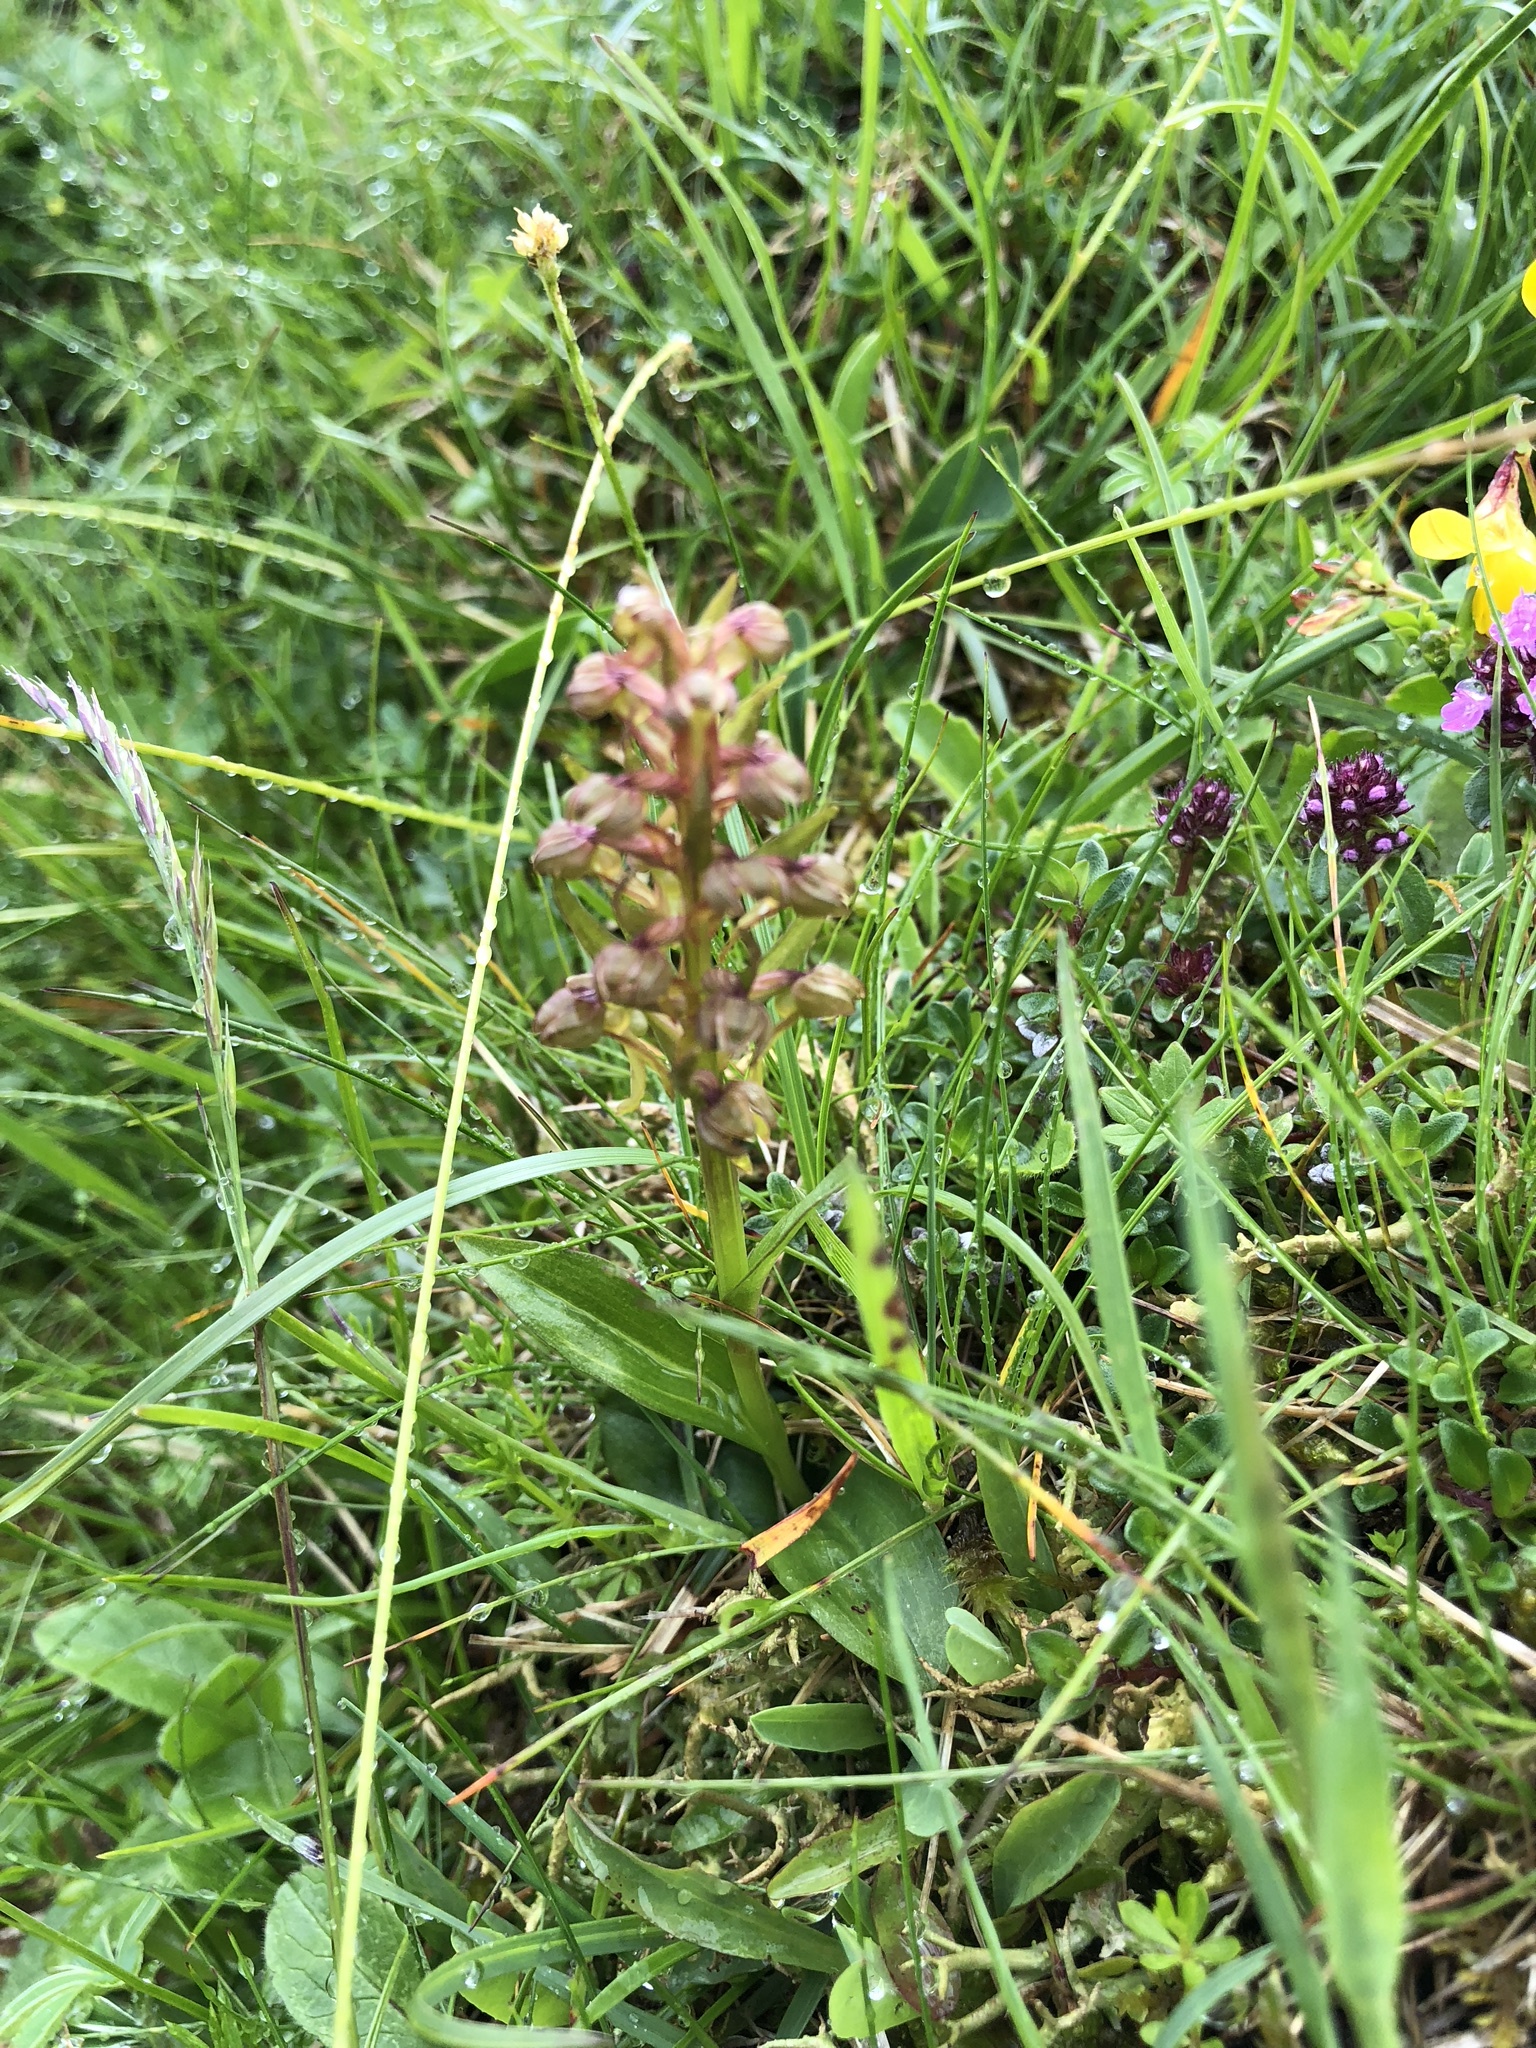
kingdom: Plantae
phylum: Tracheophyta
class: Liliopsida
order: Asparagales
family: Orchidaceae
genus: Dactylorhiza
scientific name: Dactylorhiza viridis
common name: Longbract frog orchid
